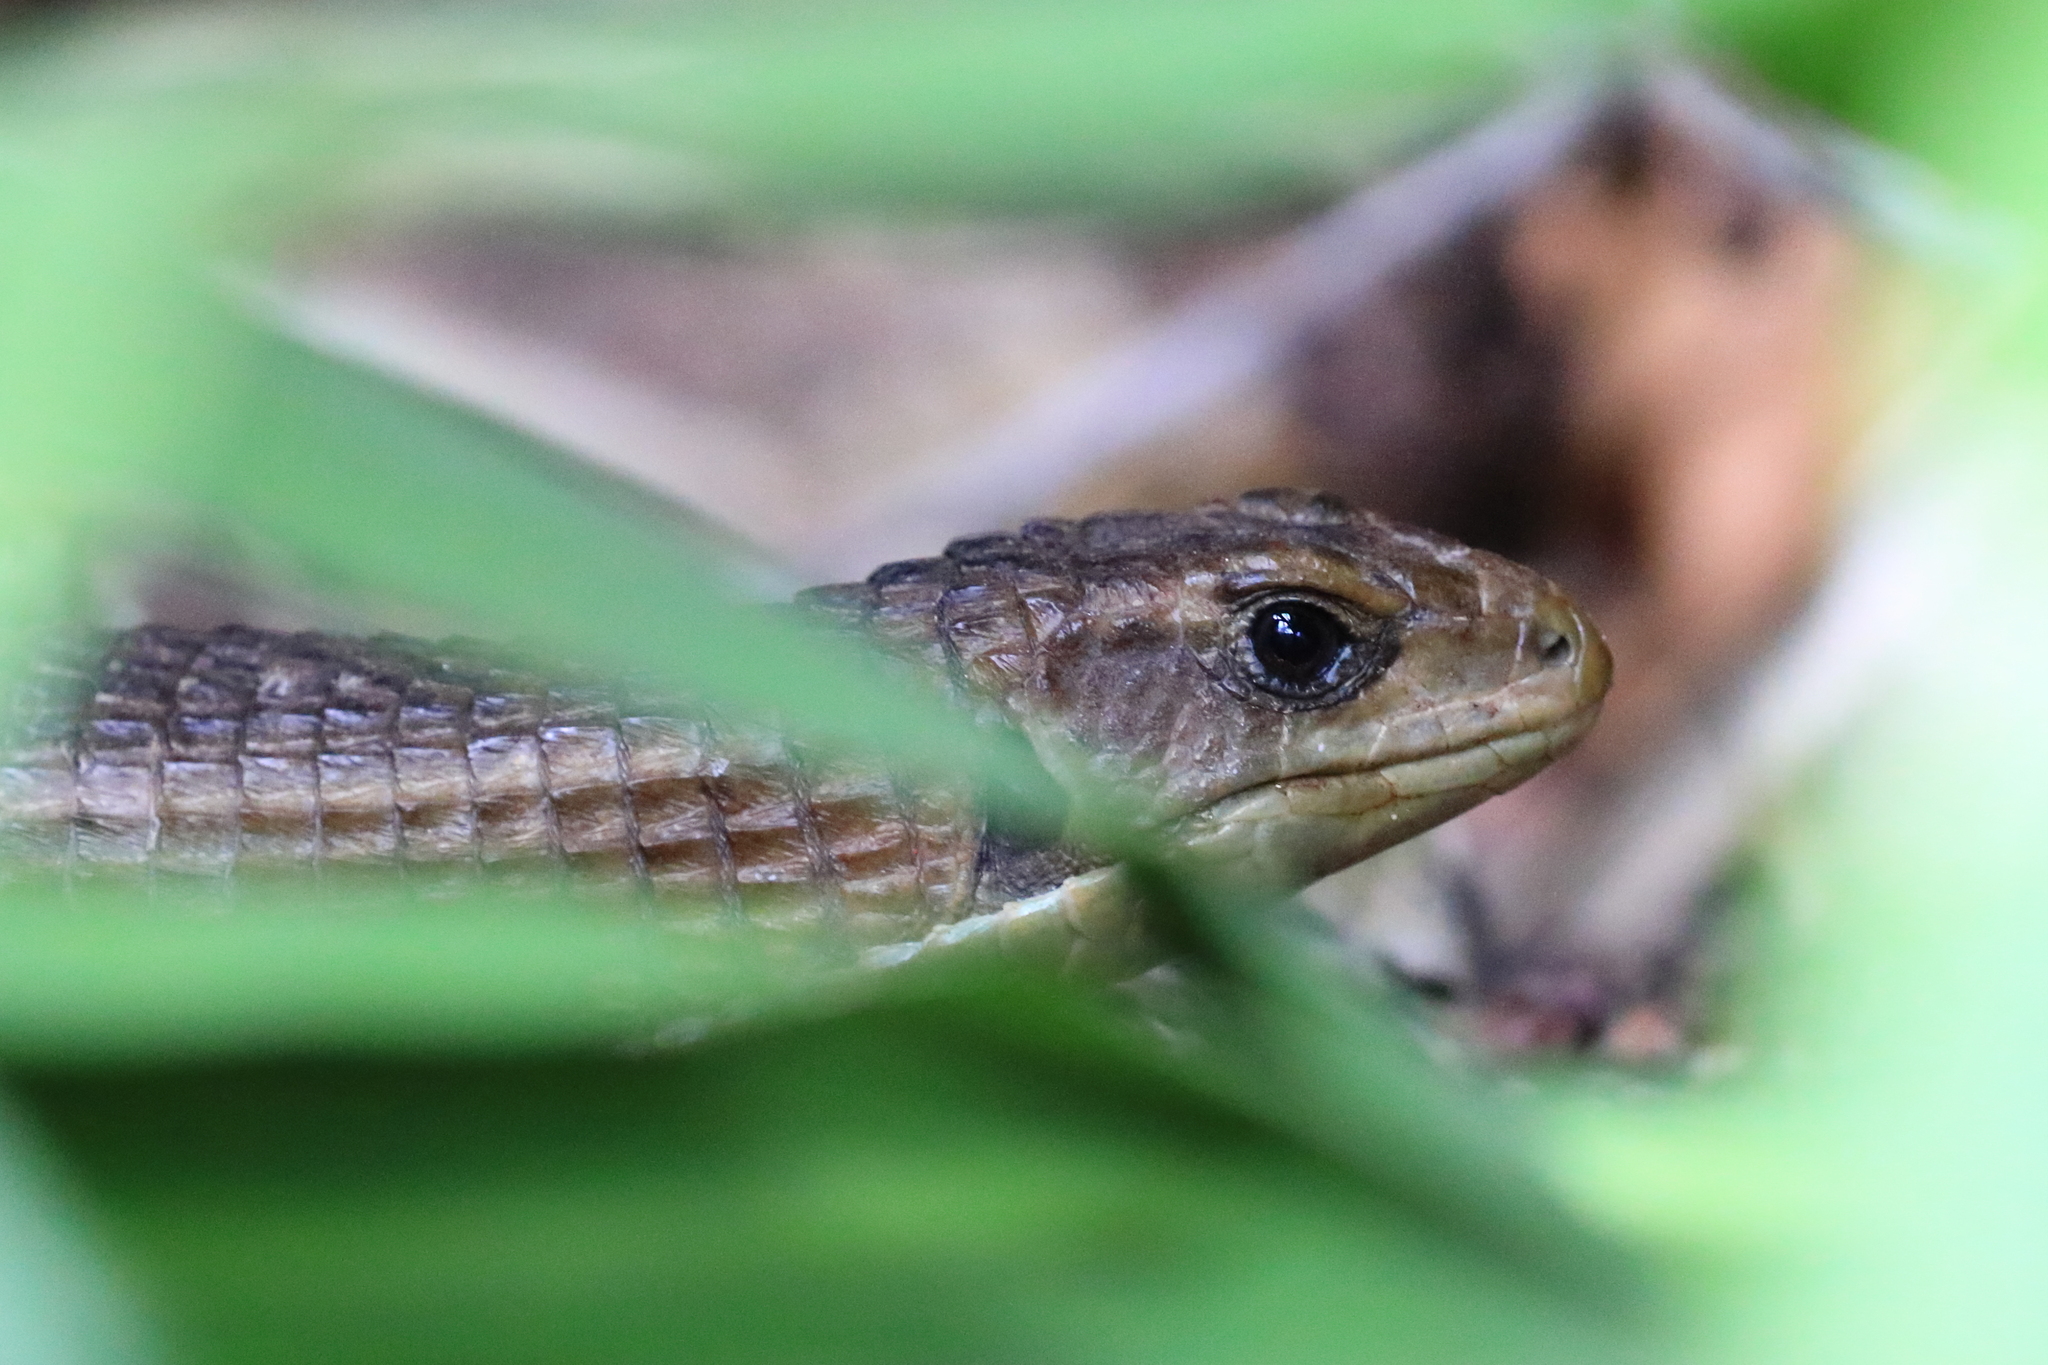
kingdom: Animalia
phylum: Chordata
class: Squamata
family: Gerrhosauridae
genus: Broadleysaurus
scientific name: Broadleysaurus major
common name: Rough-scaled plated lizard
